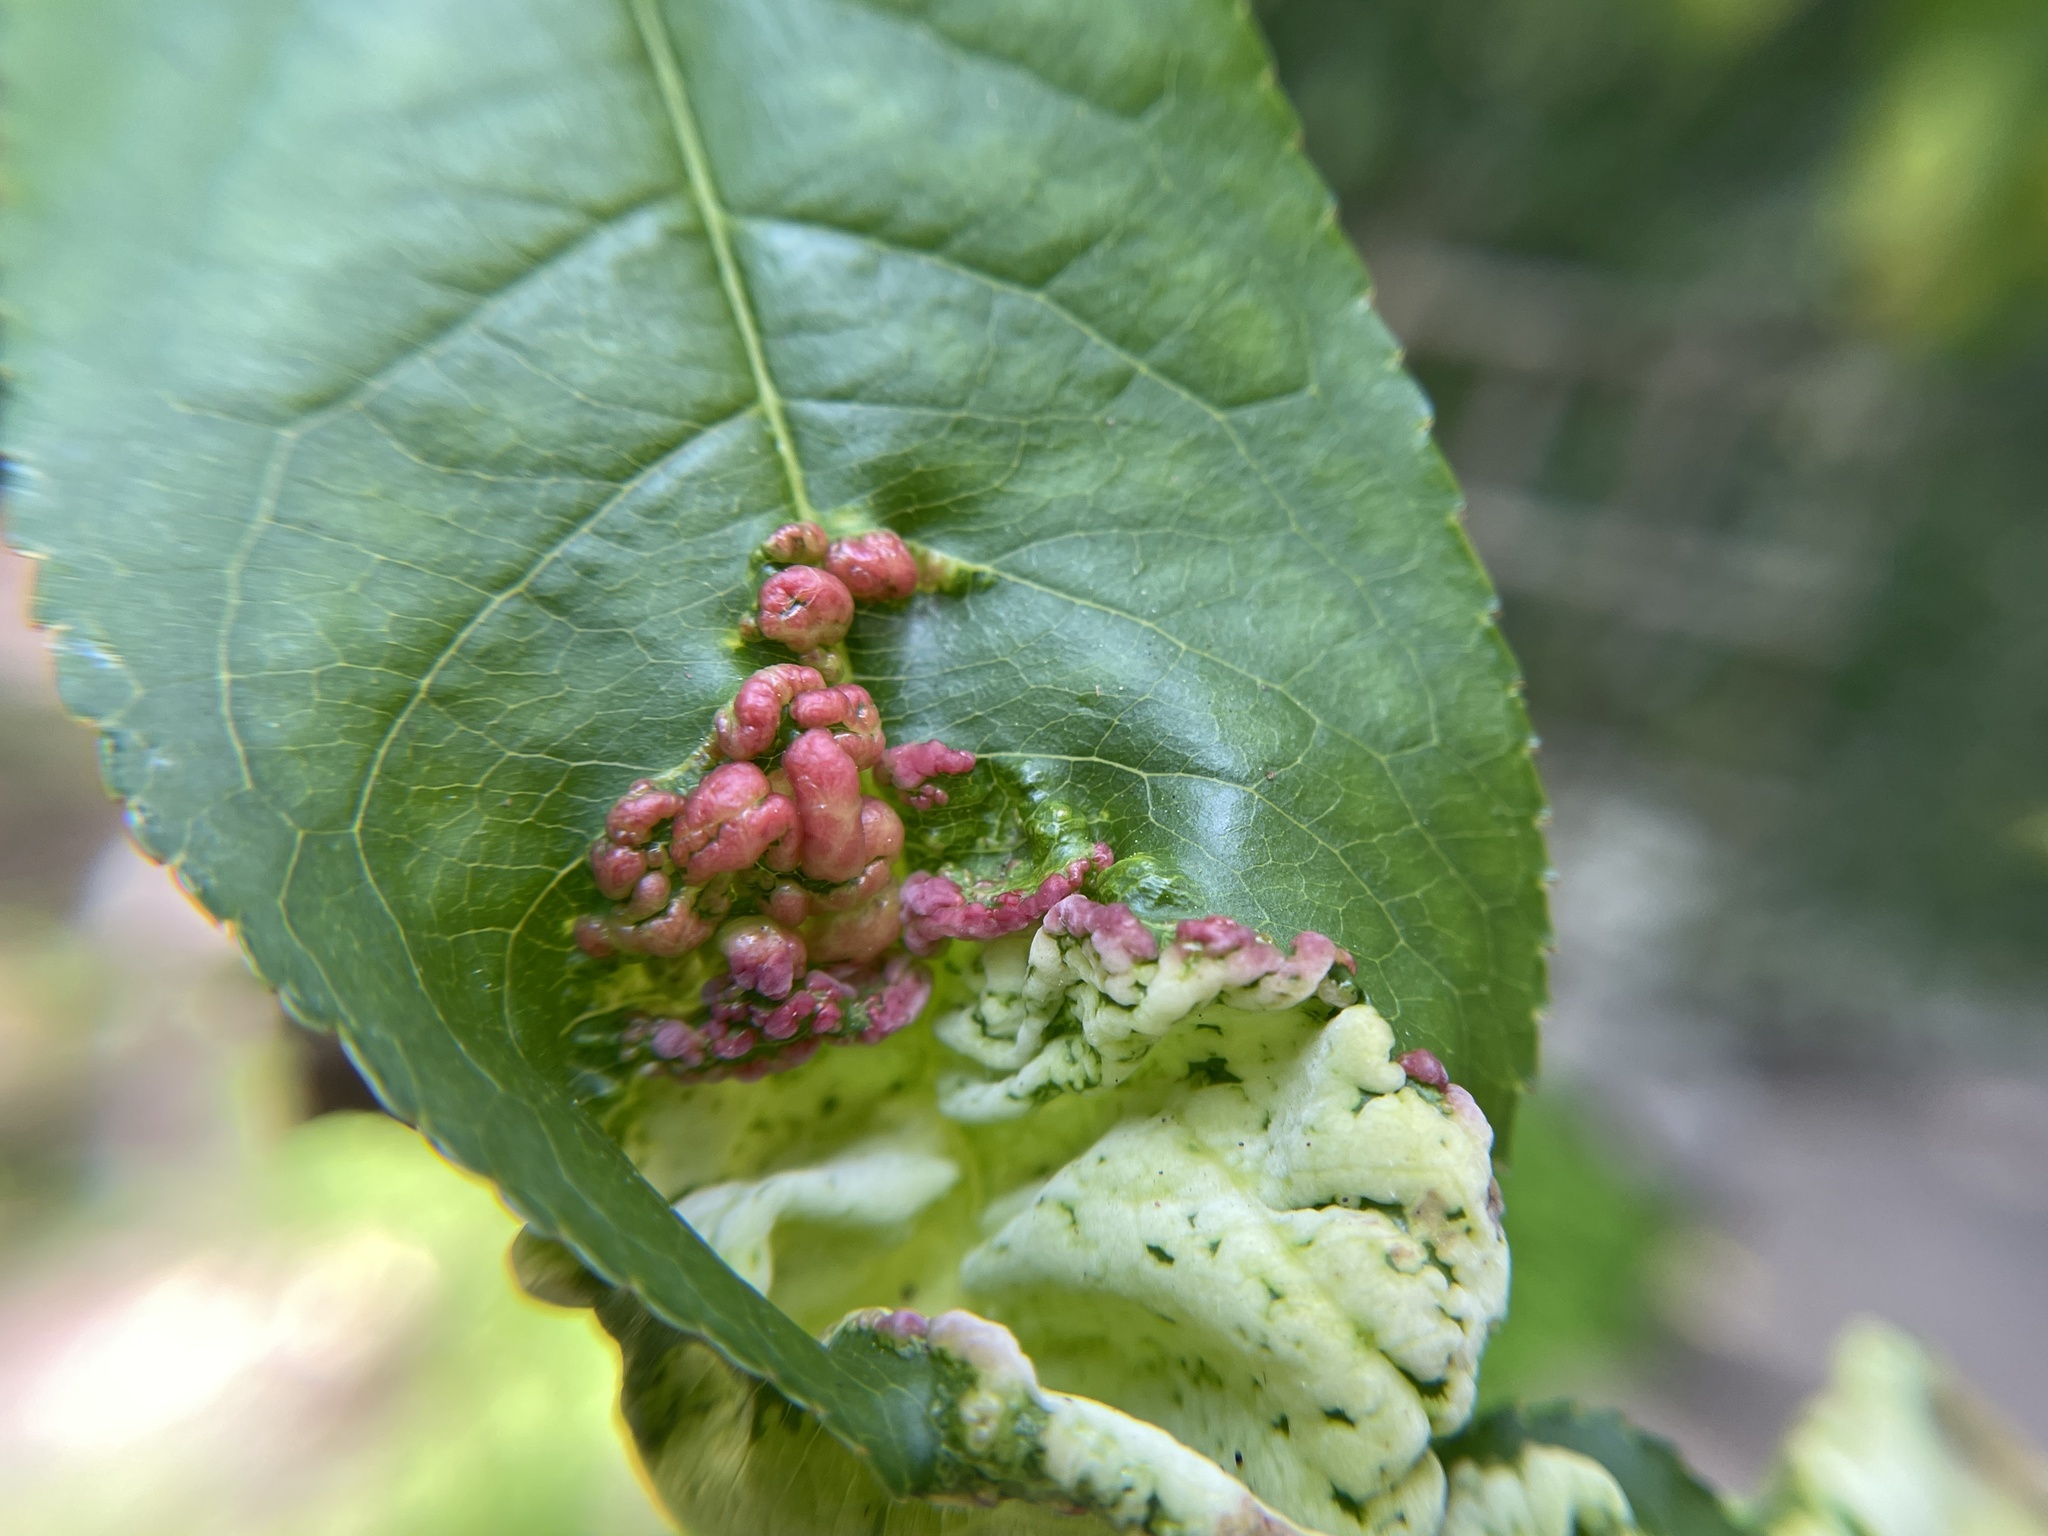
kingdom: Fungi
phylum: Ascomycota
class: Taphrinomycetes
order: Taphrinales
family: Taphrinaceae
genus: Taphrina
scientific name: Taphrina deformans
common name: Peach leaf curl
